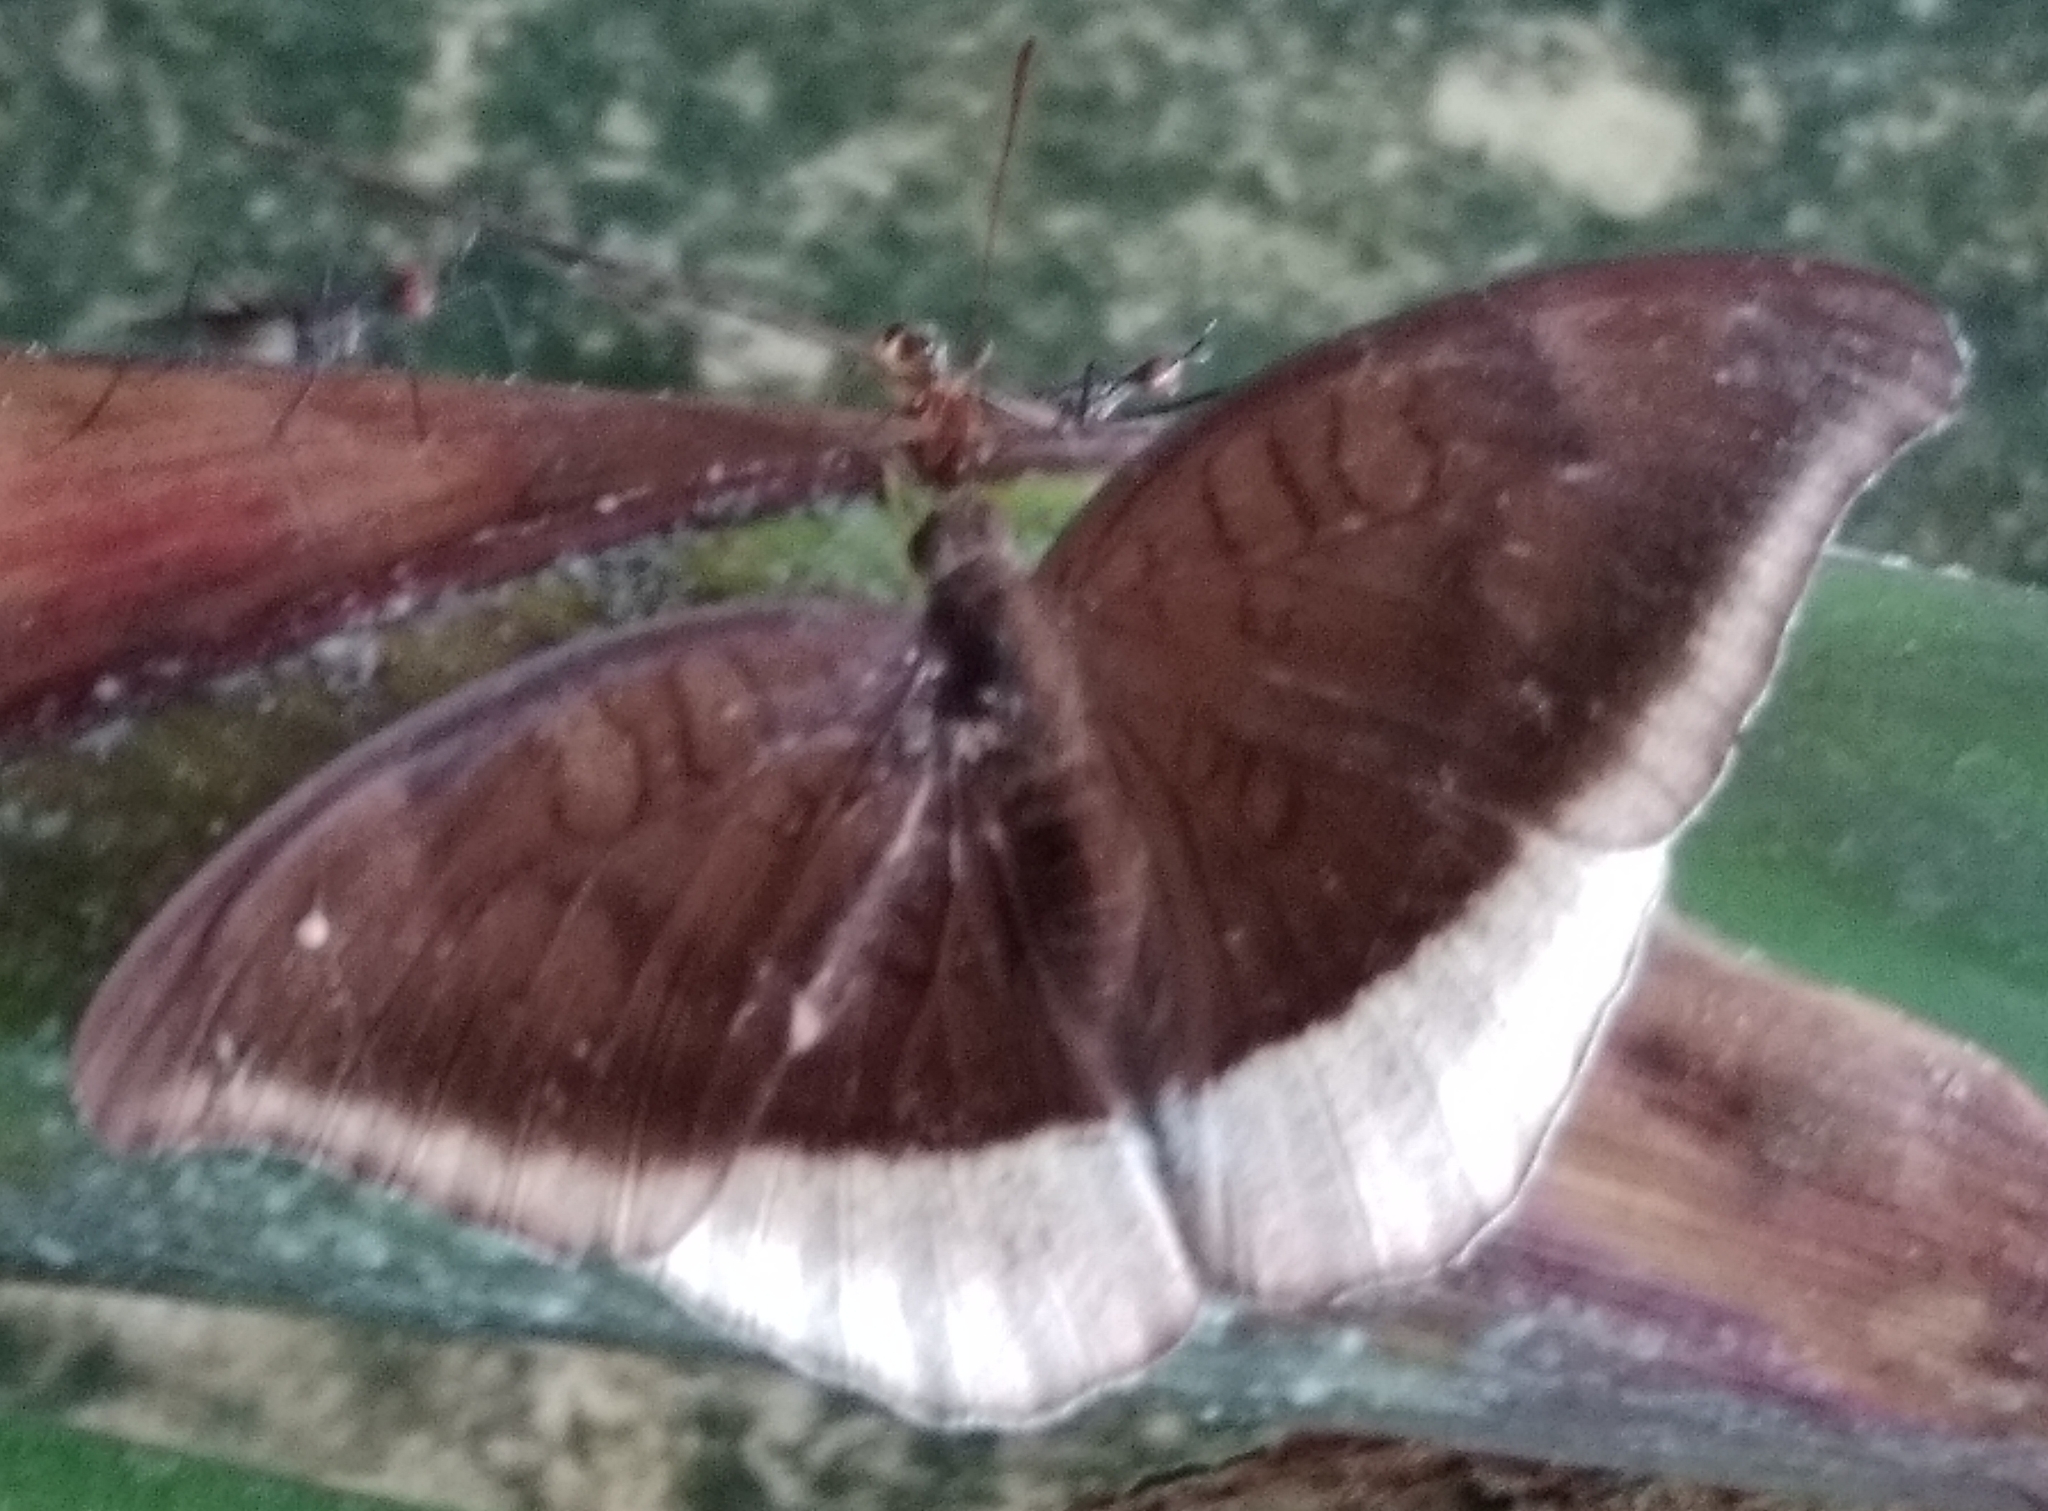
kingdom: Animalia
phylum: Arthropoda
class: Insecta
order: Lepidoptera
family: Nymphalidae
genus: Tanaecia
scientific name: Tanaecia lepidea
